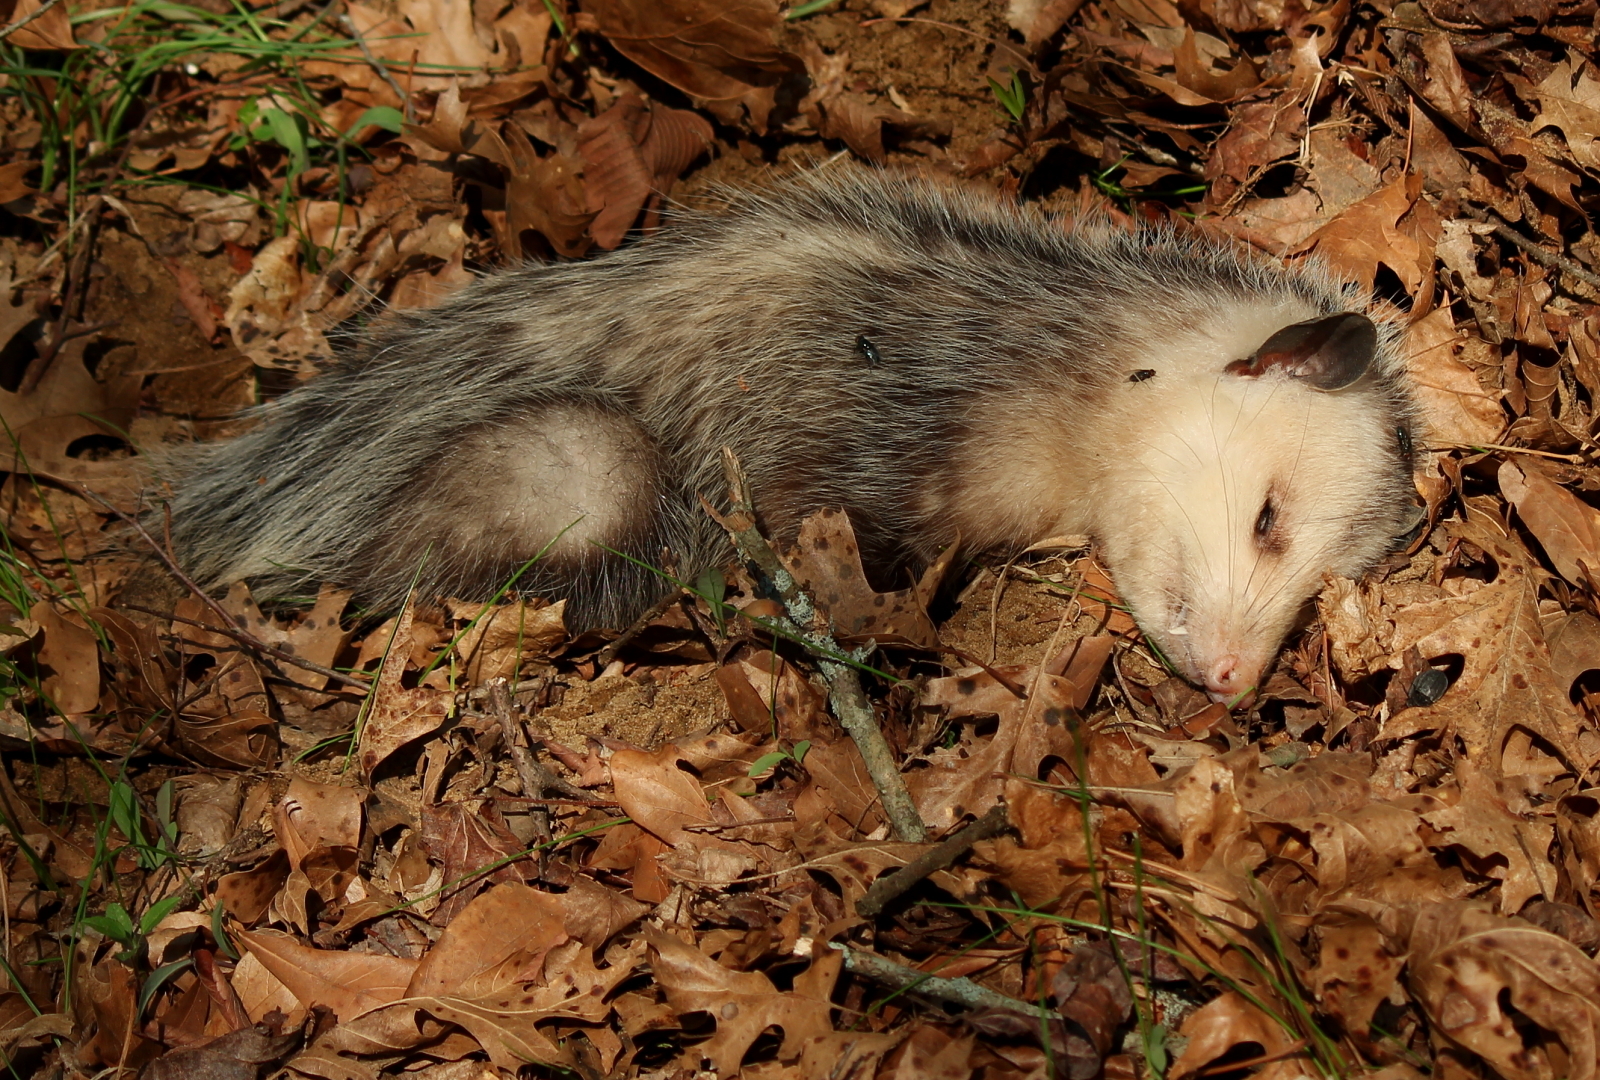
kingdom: Animalia
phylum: Chordata
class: Mammalia
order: Didelphimorphia
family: Didelphidae
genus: Didelphis
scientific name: Didelphis virginiana
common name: Virginia opossum
